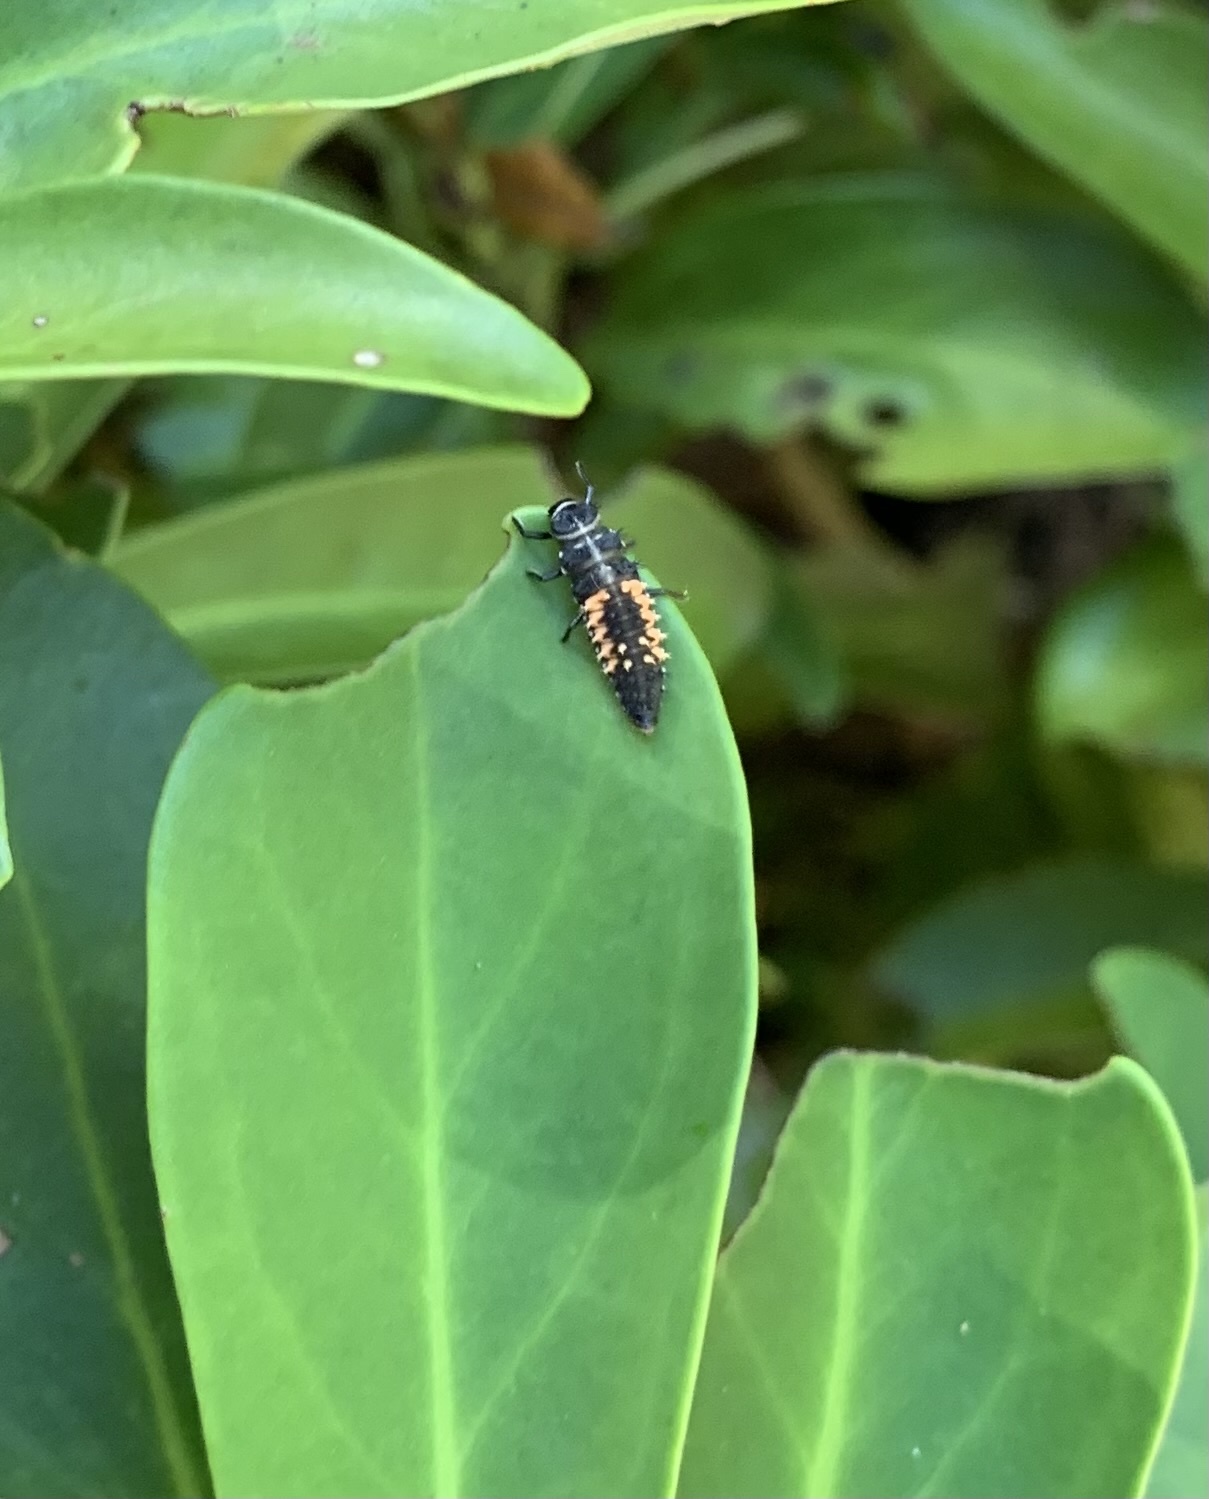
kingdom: Animalia
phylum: Arthropoda
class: Insecta
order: Coleoptera
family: Coccinellidae
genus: Harmonia
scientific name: Harmonia axyridis
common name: Harlequin ladybird
